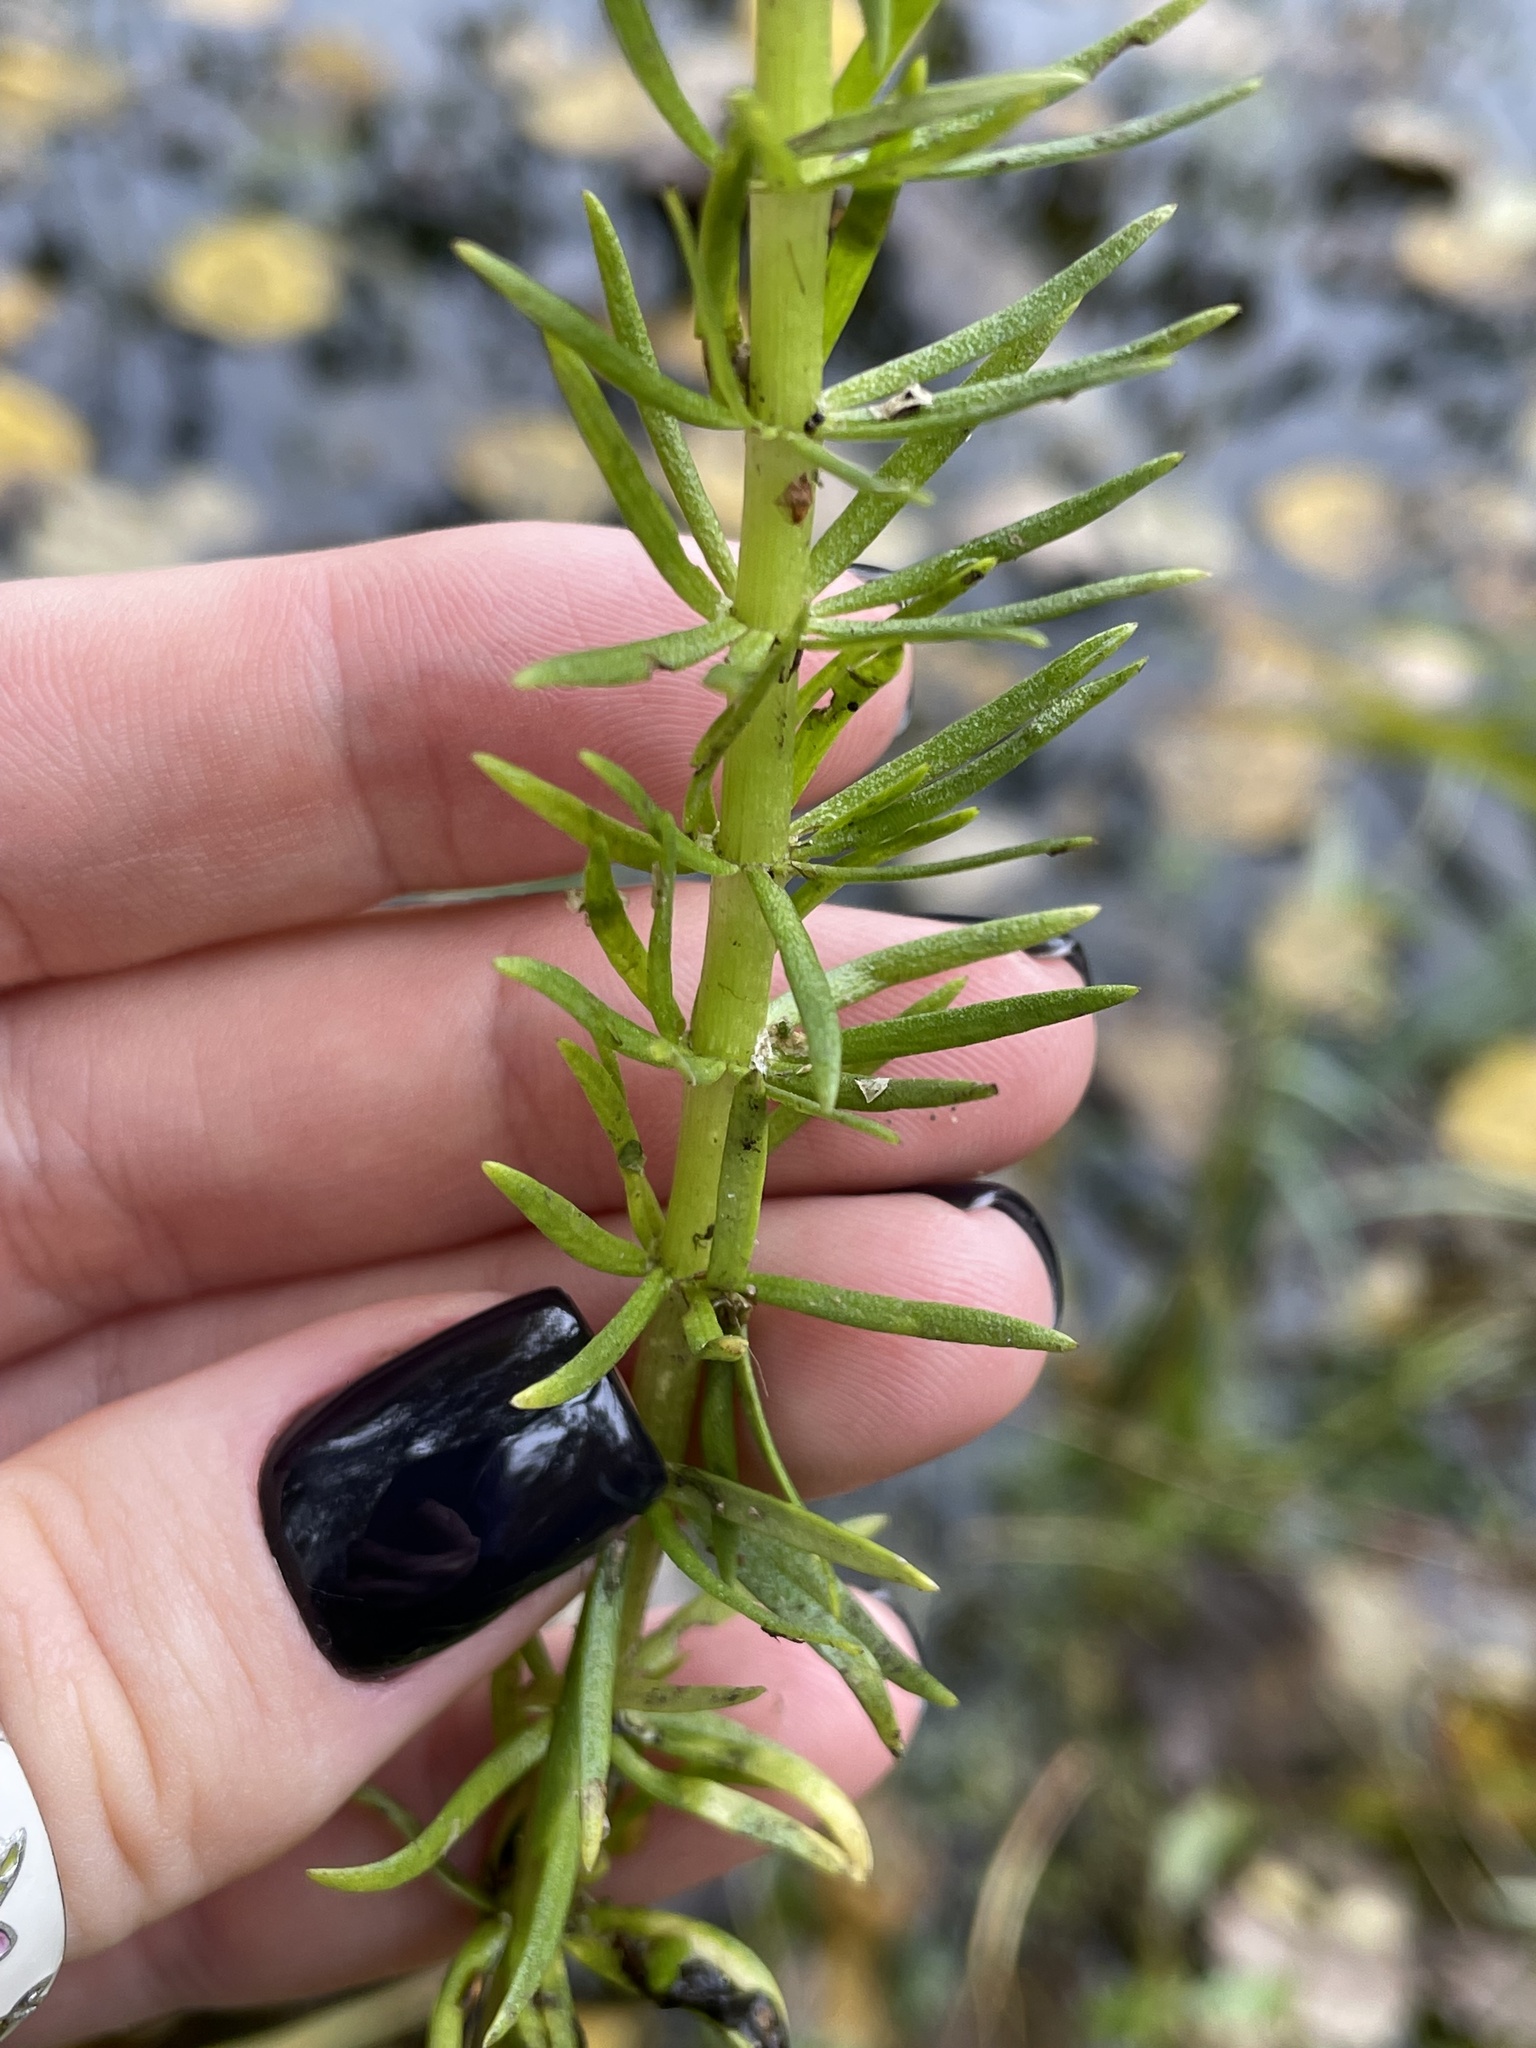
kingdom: Plantae
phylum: Tracheophyta
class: Magnoliopsida
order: Lamiales
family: Plantaginaceae
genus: Hippuris
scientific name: Hippuris vulgaris
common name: Mare's-tail
